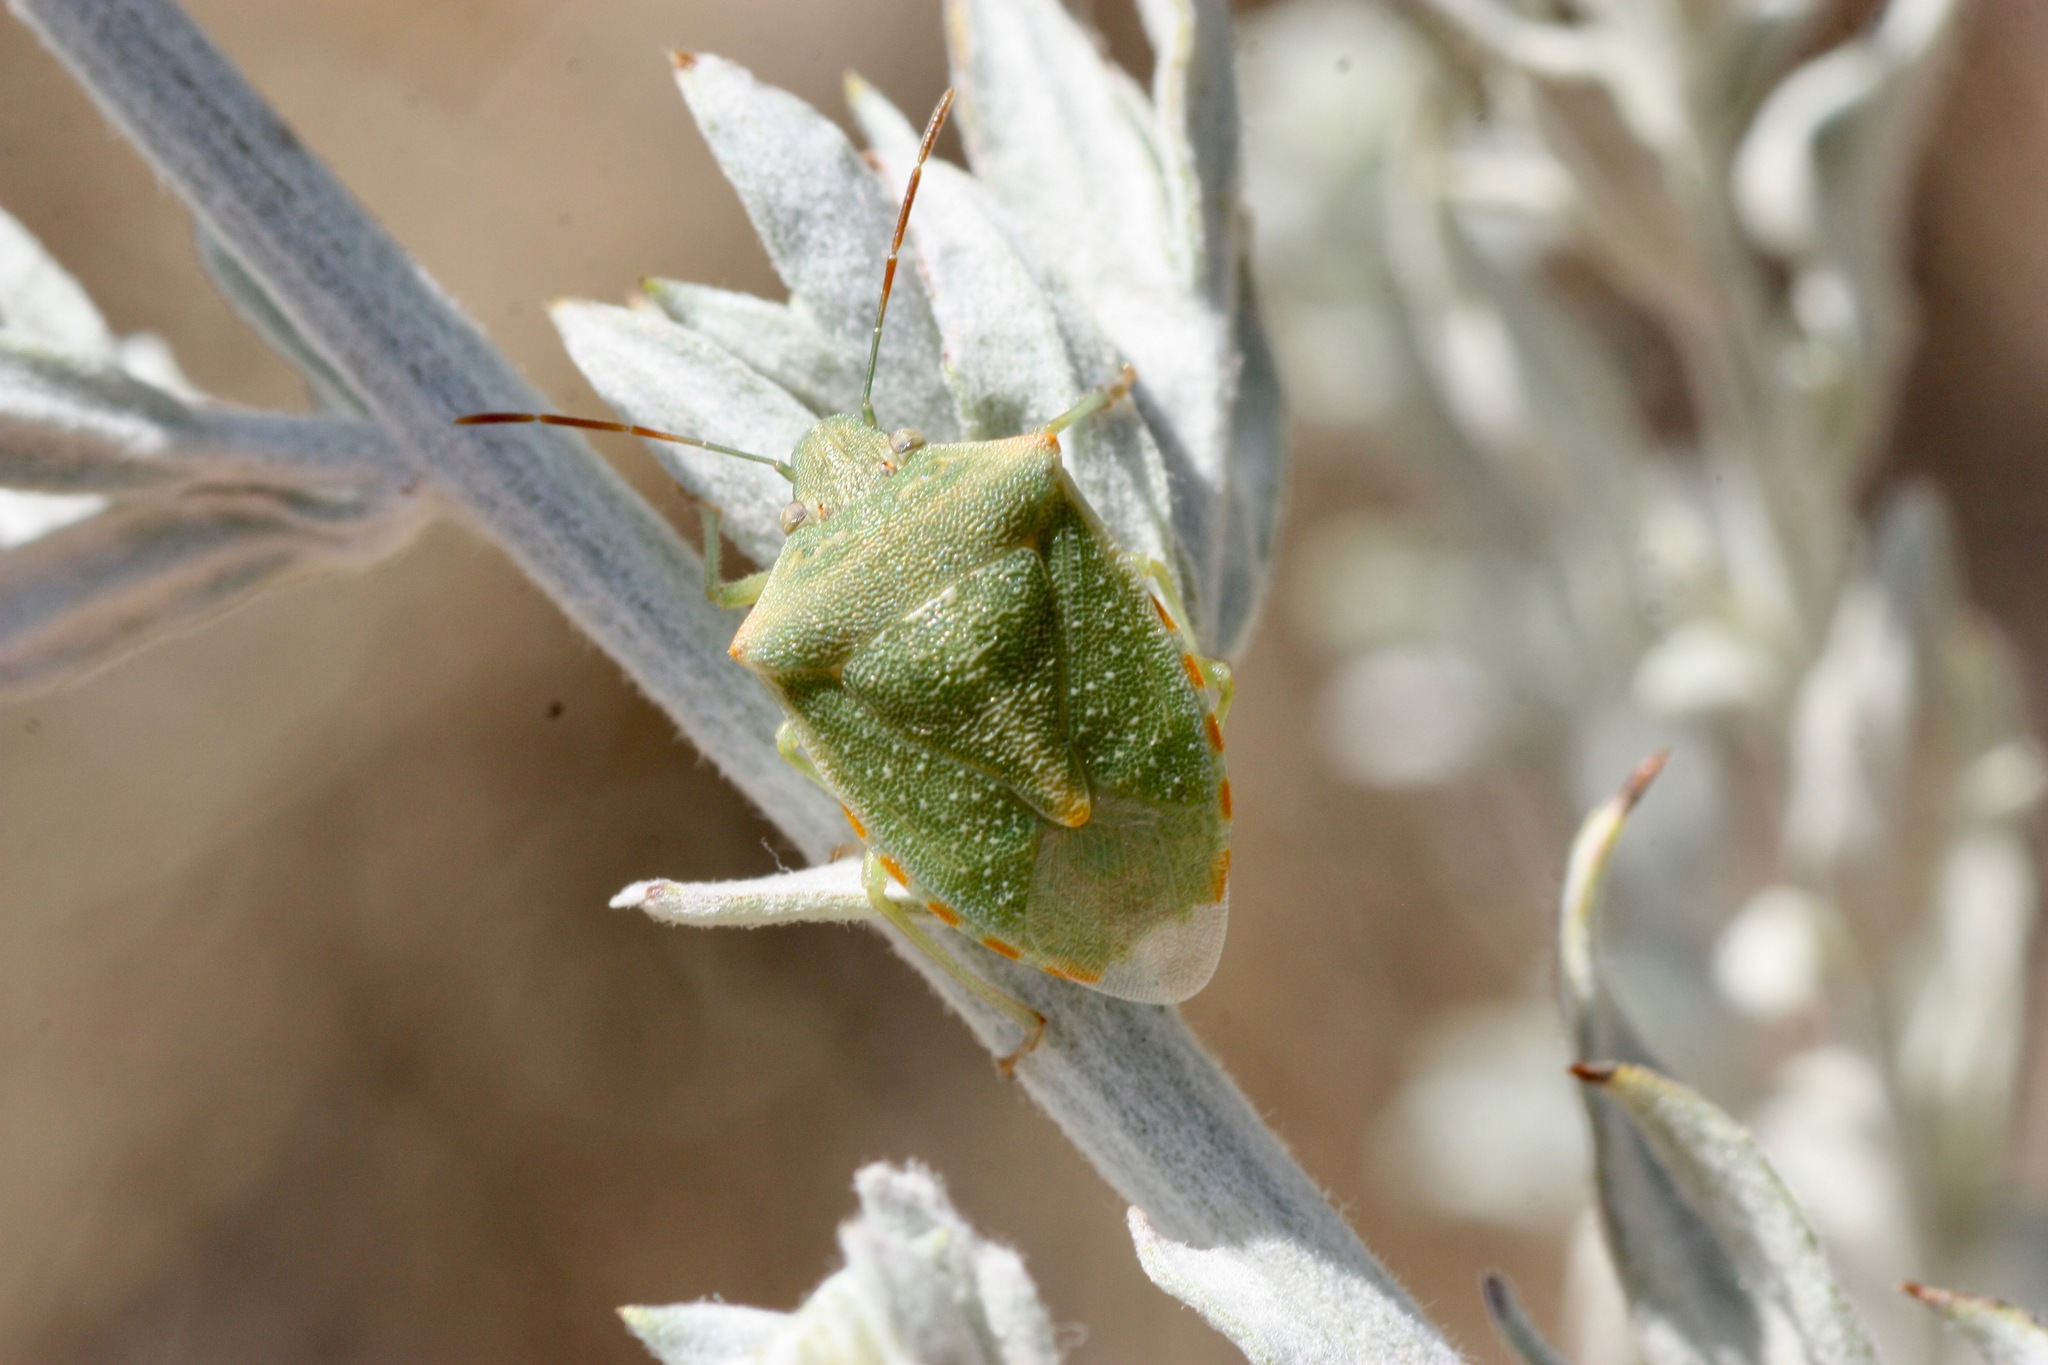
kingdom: Animalia
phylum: Arthropoda
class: Insecta
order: Hemiptera
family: Pentatomidae
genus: Thyanta
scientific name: Thyanta accerra
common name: Stink bug
